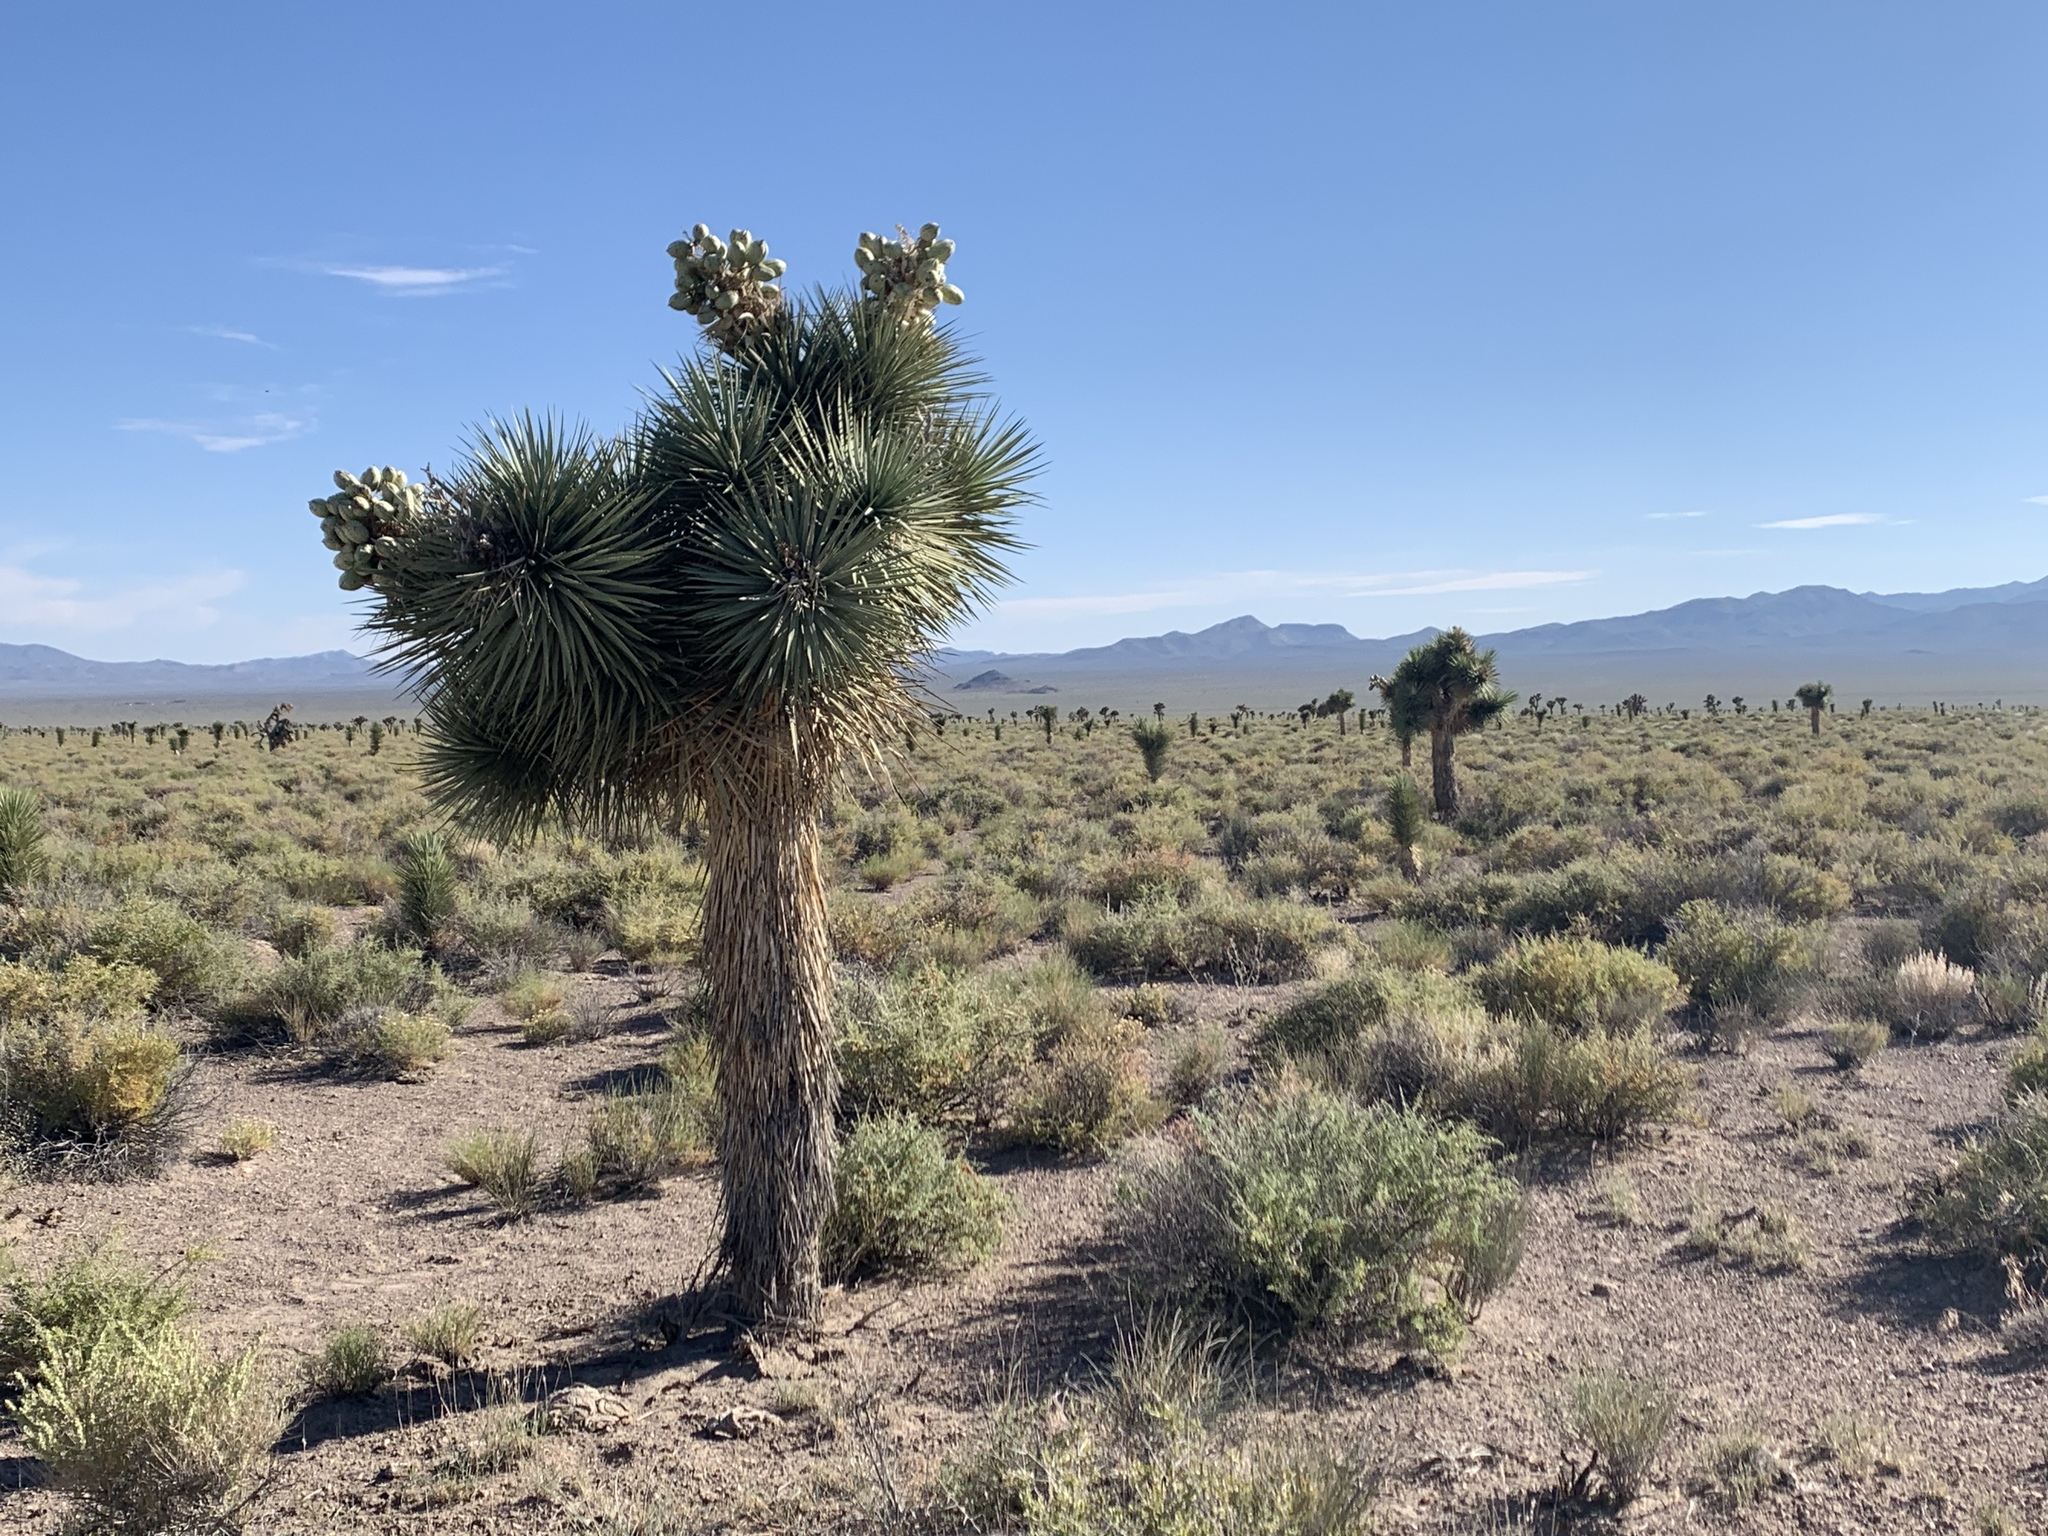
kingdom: Plantae
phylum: Tracheophyta
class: Liliopsida
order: Asparagales
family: Asparagaceae
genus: Yucca
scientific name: Yucca brevifolia
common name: Joshua tree
